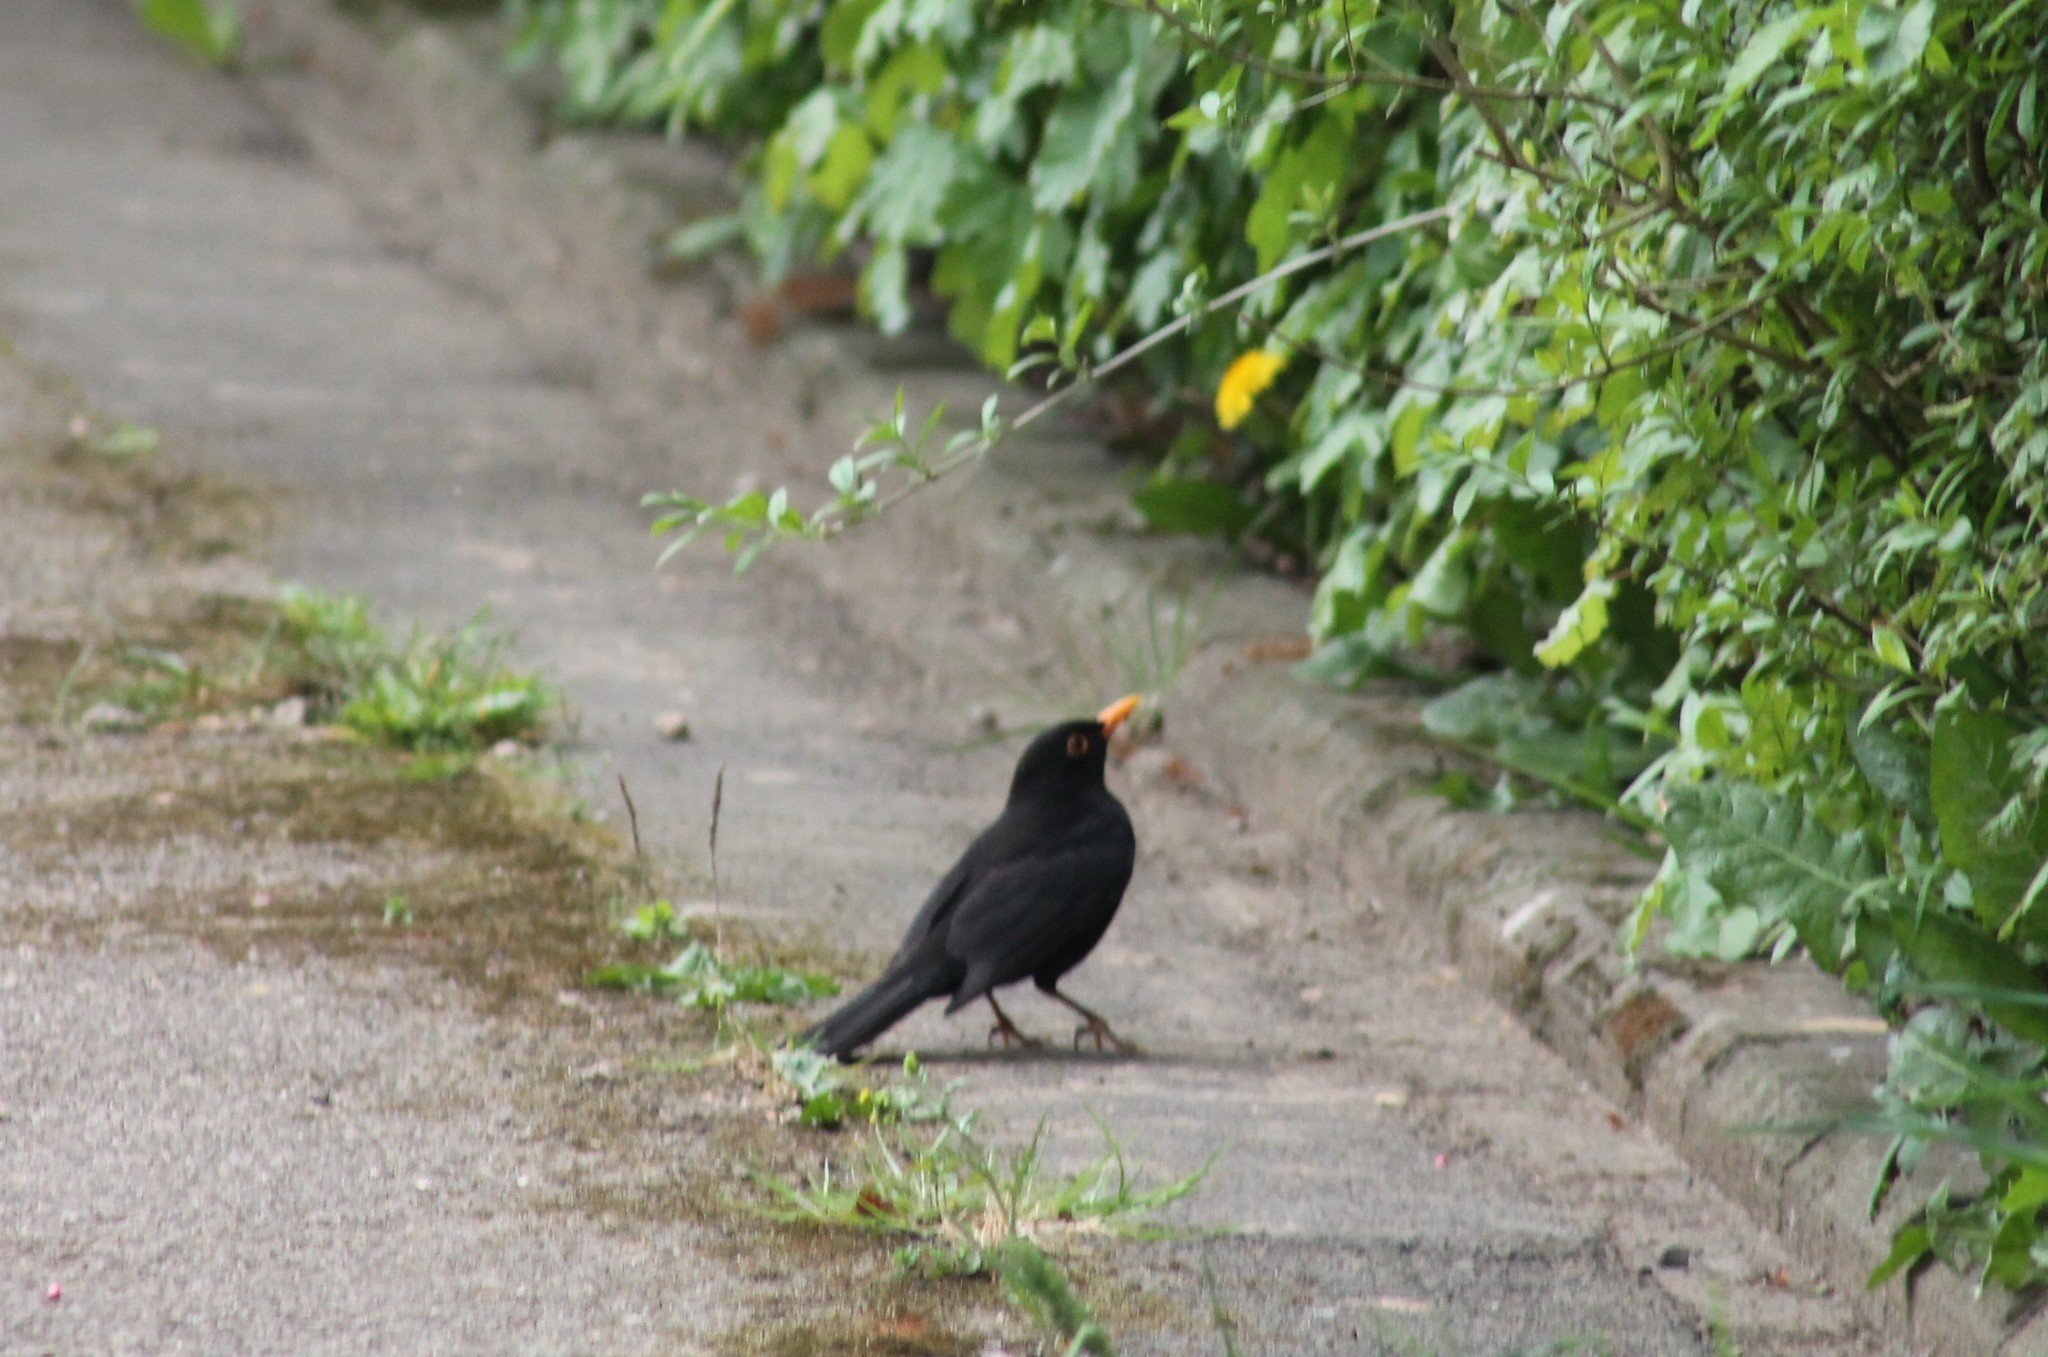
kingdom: Animalia
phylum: Chordata
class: Aves
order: Passeriformes
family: Turdidae
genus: Turdus
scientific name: Turdus merula
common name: Common blackbird
